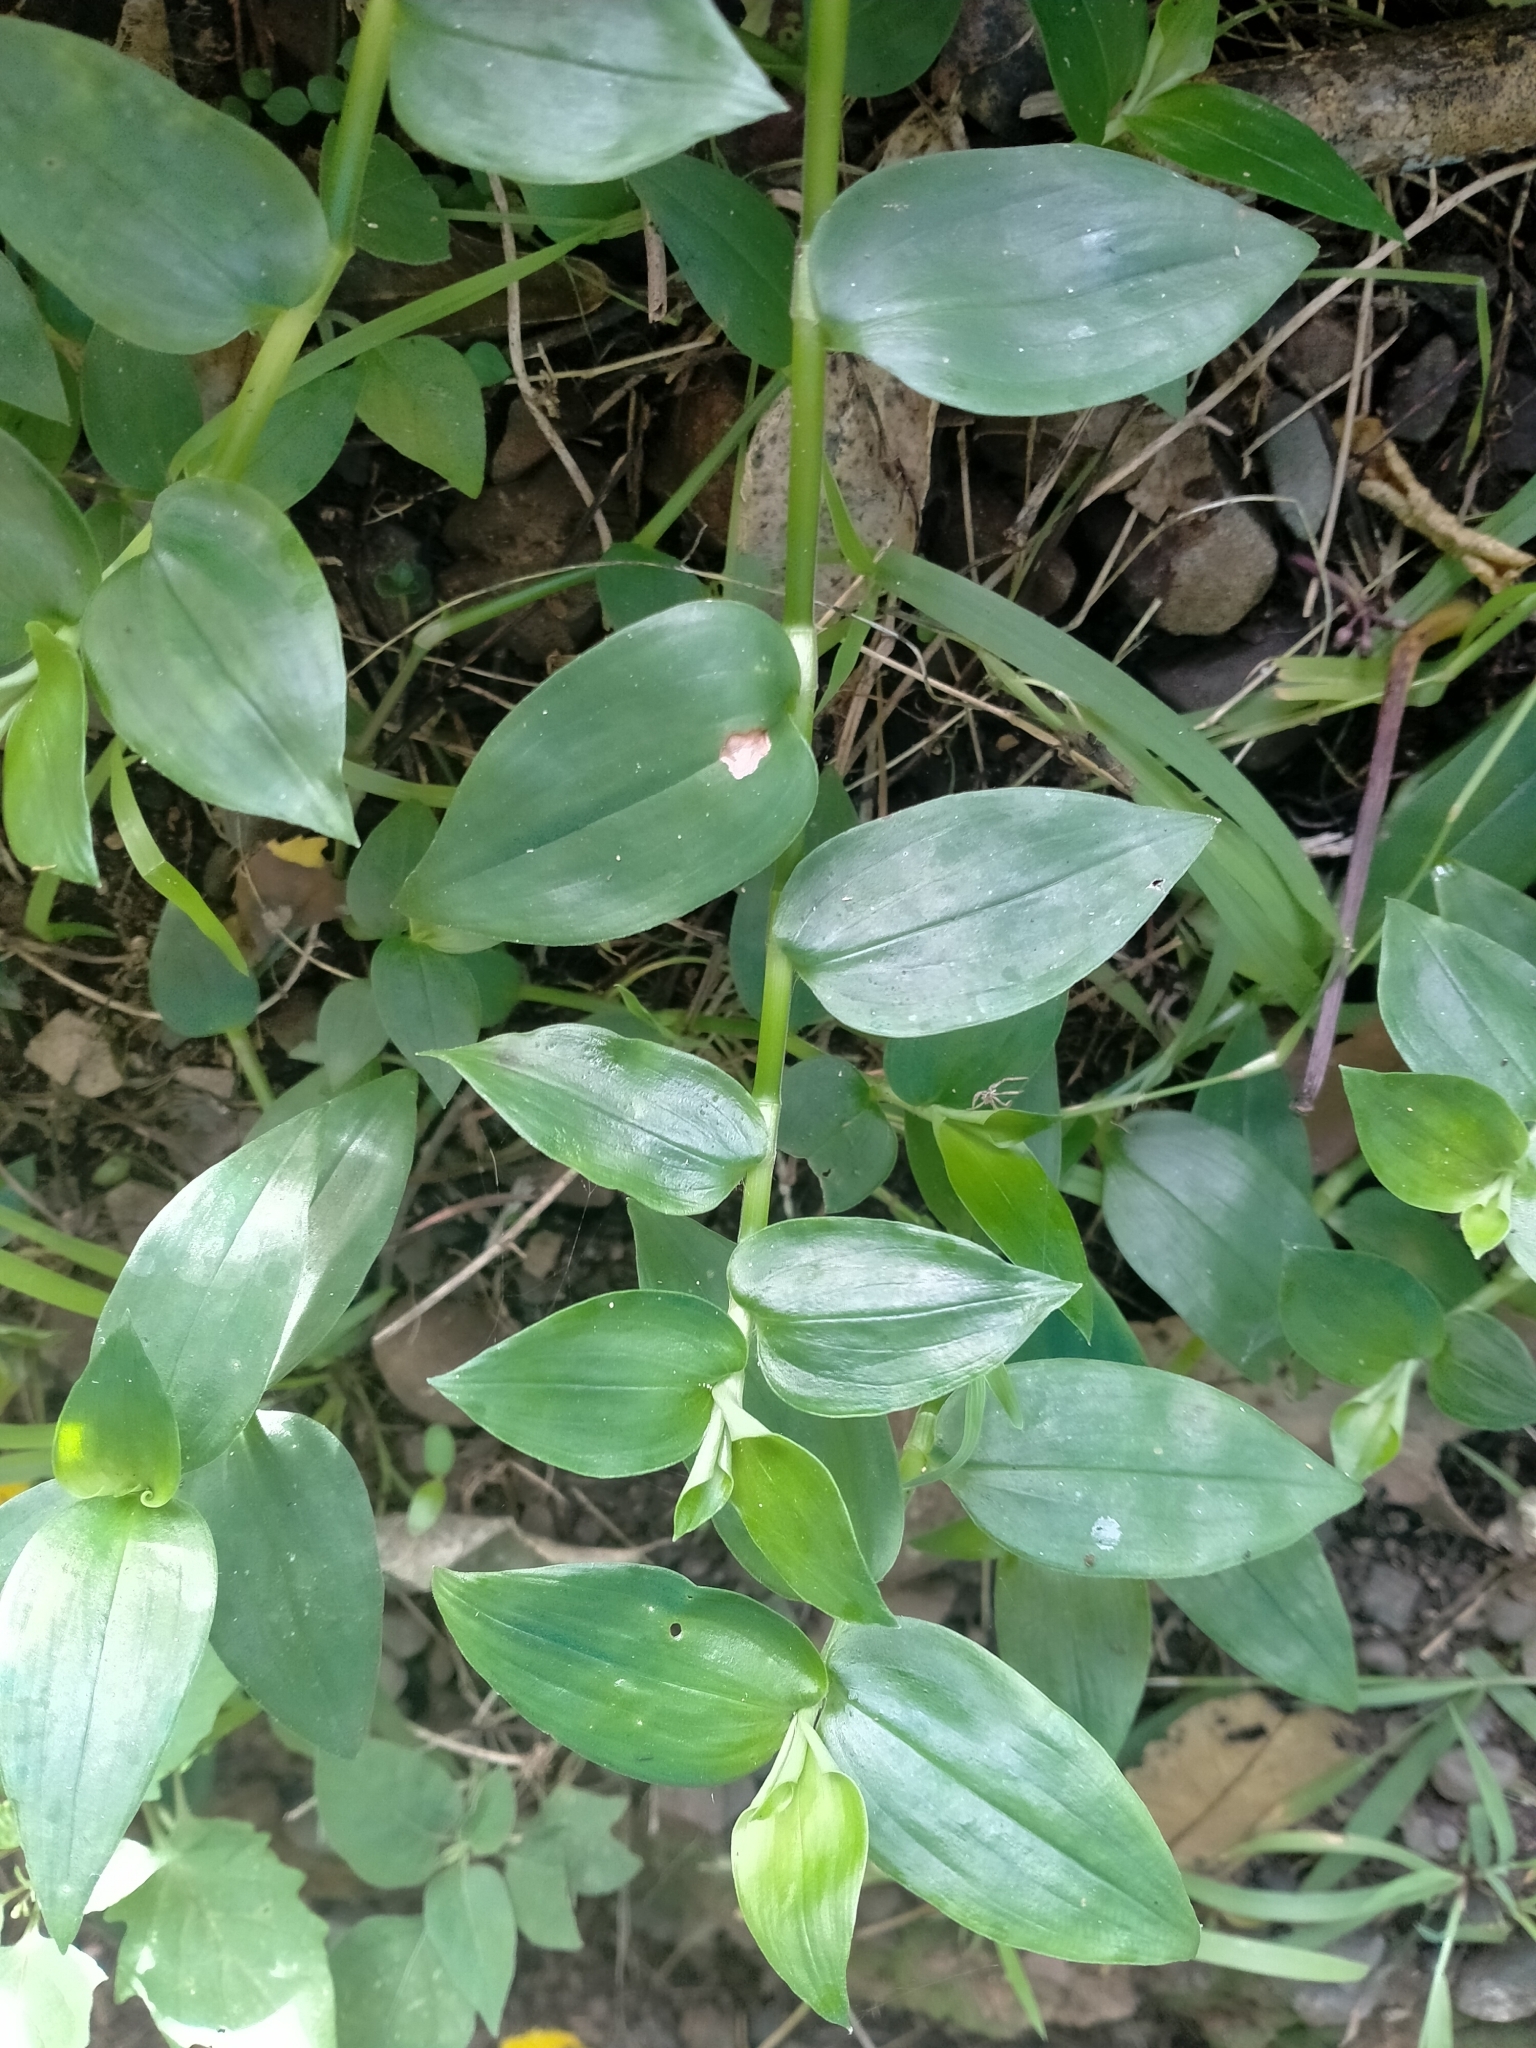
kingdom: Plantae
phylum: Tracheophyta
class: Liliopsida
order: Commelinales
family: Commelinaceae
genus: Tradescantia
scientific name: Tradescantia fluminensis
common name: Wandering-jew
